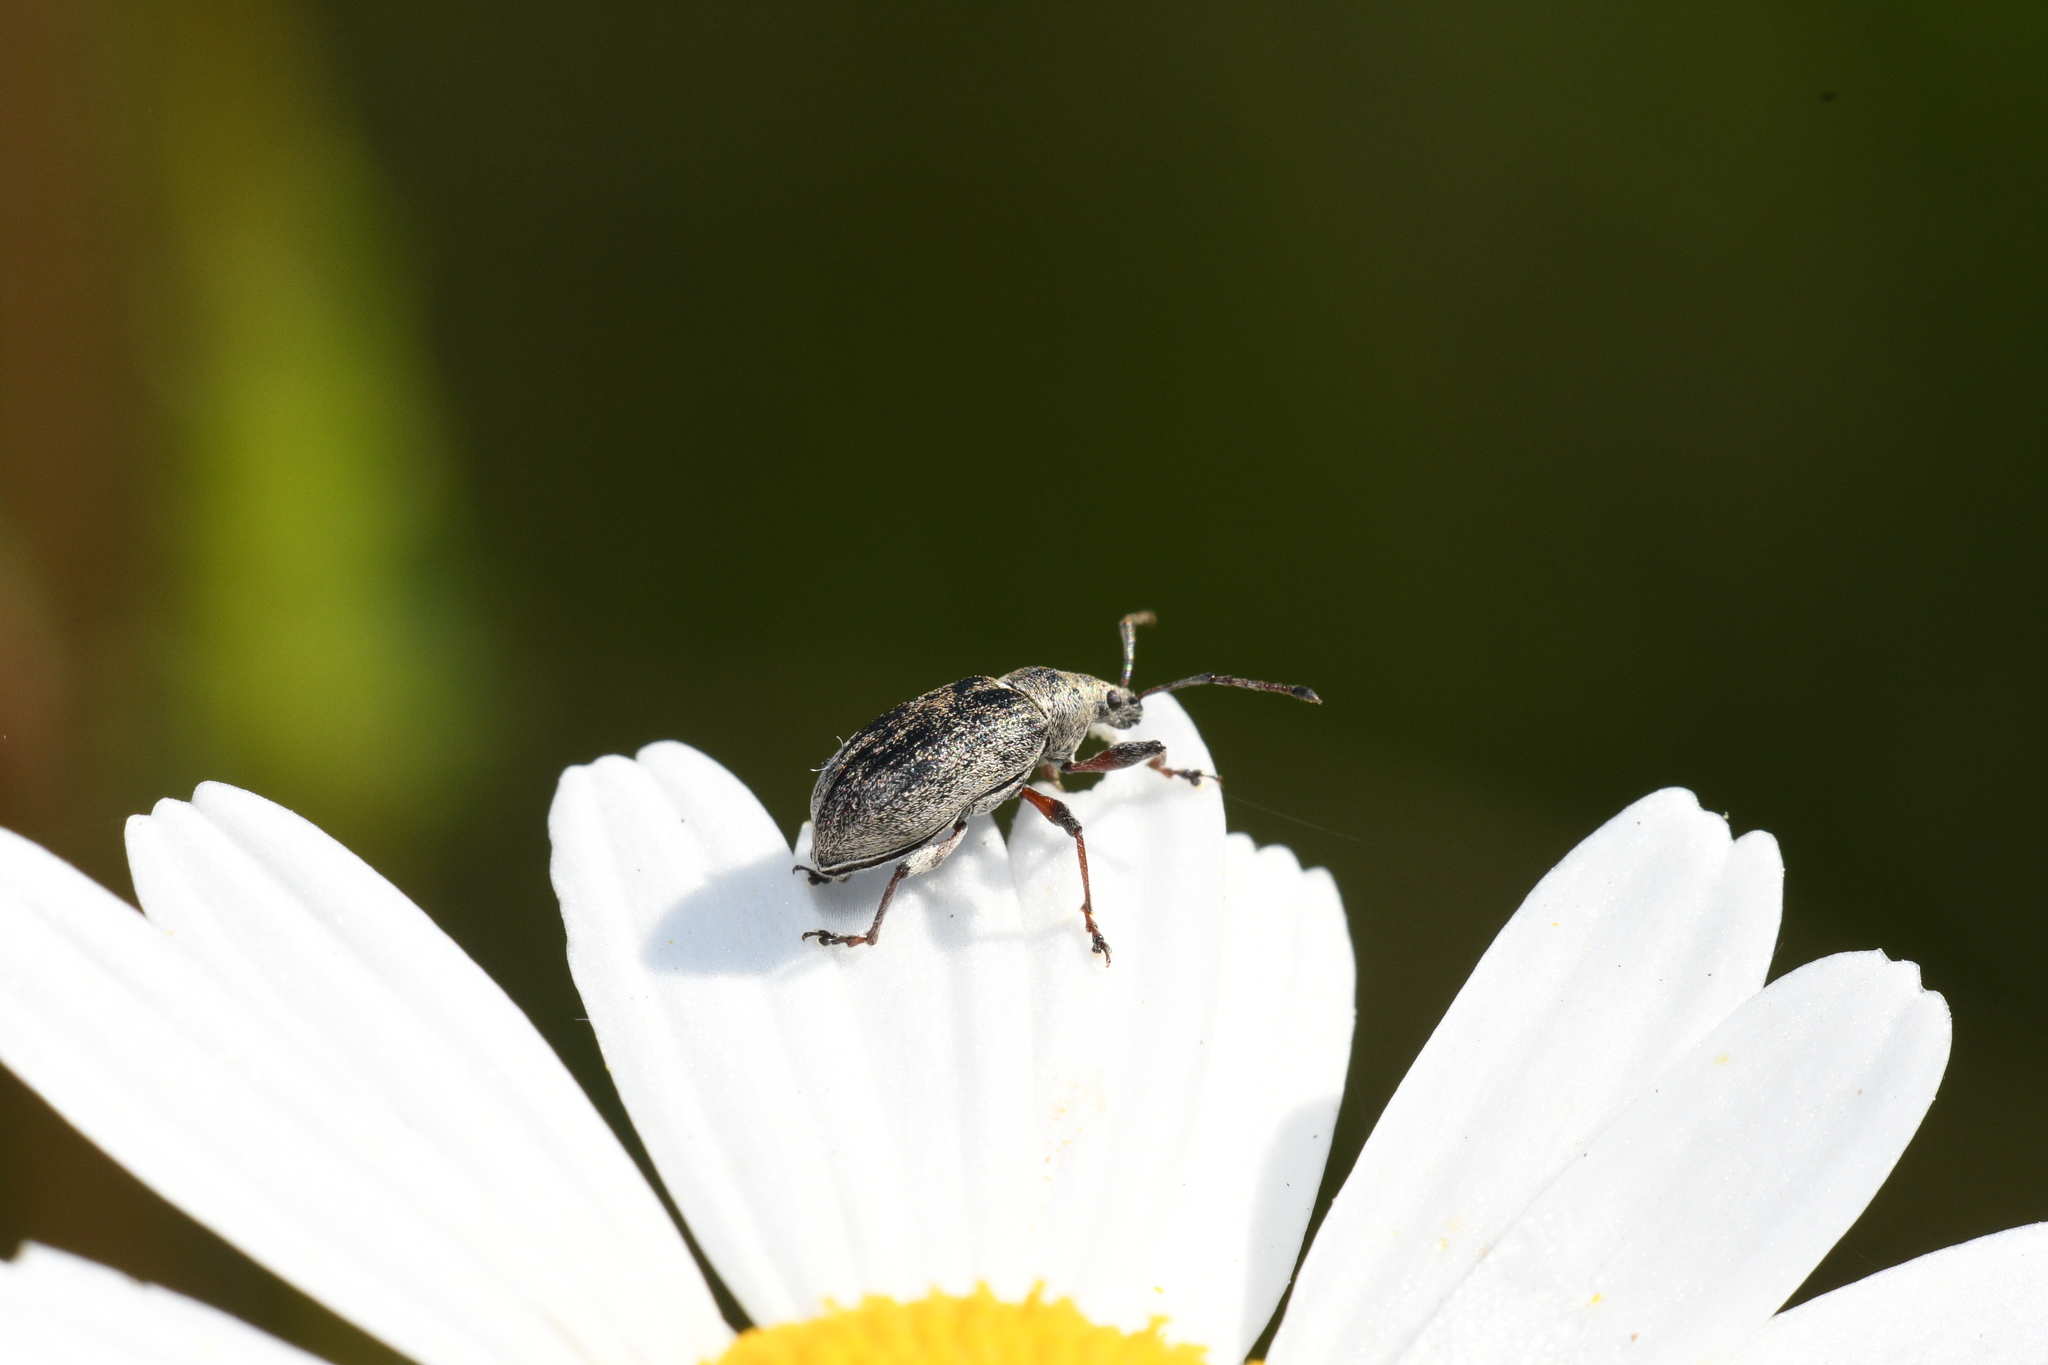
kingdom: Animalia
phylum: Arthropoda
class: Insecta
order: Coleoptera
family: Curculionidae
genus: Phyllobius
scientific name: Phyllobius pyri
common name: Common leaf weevil
